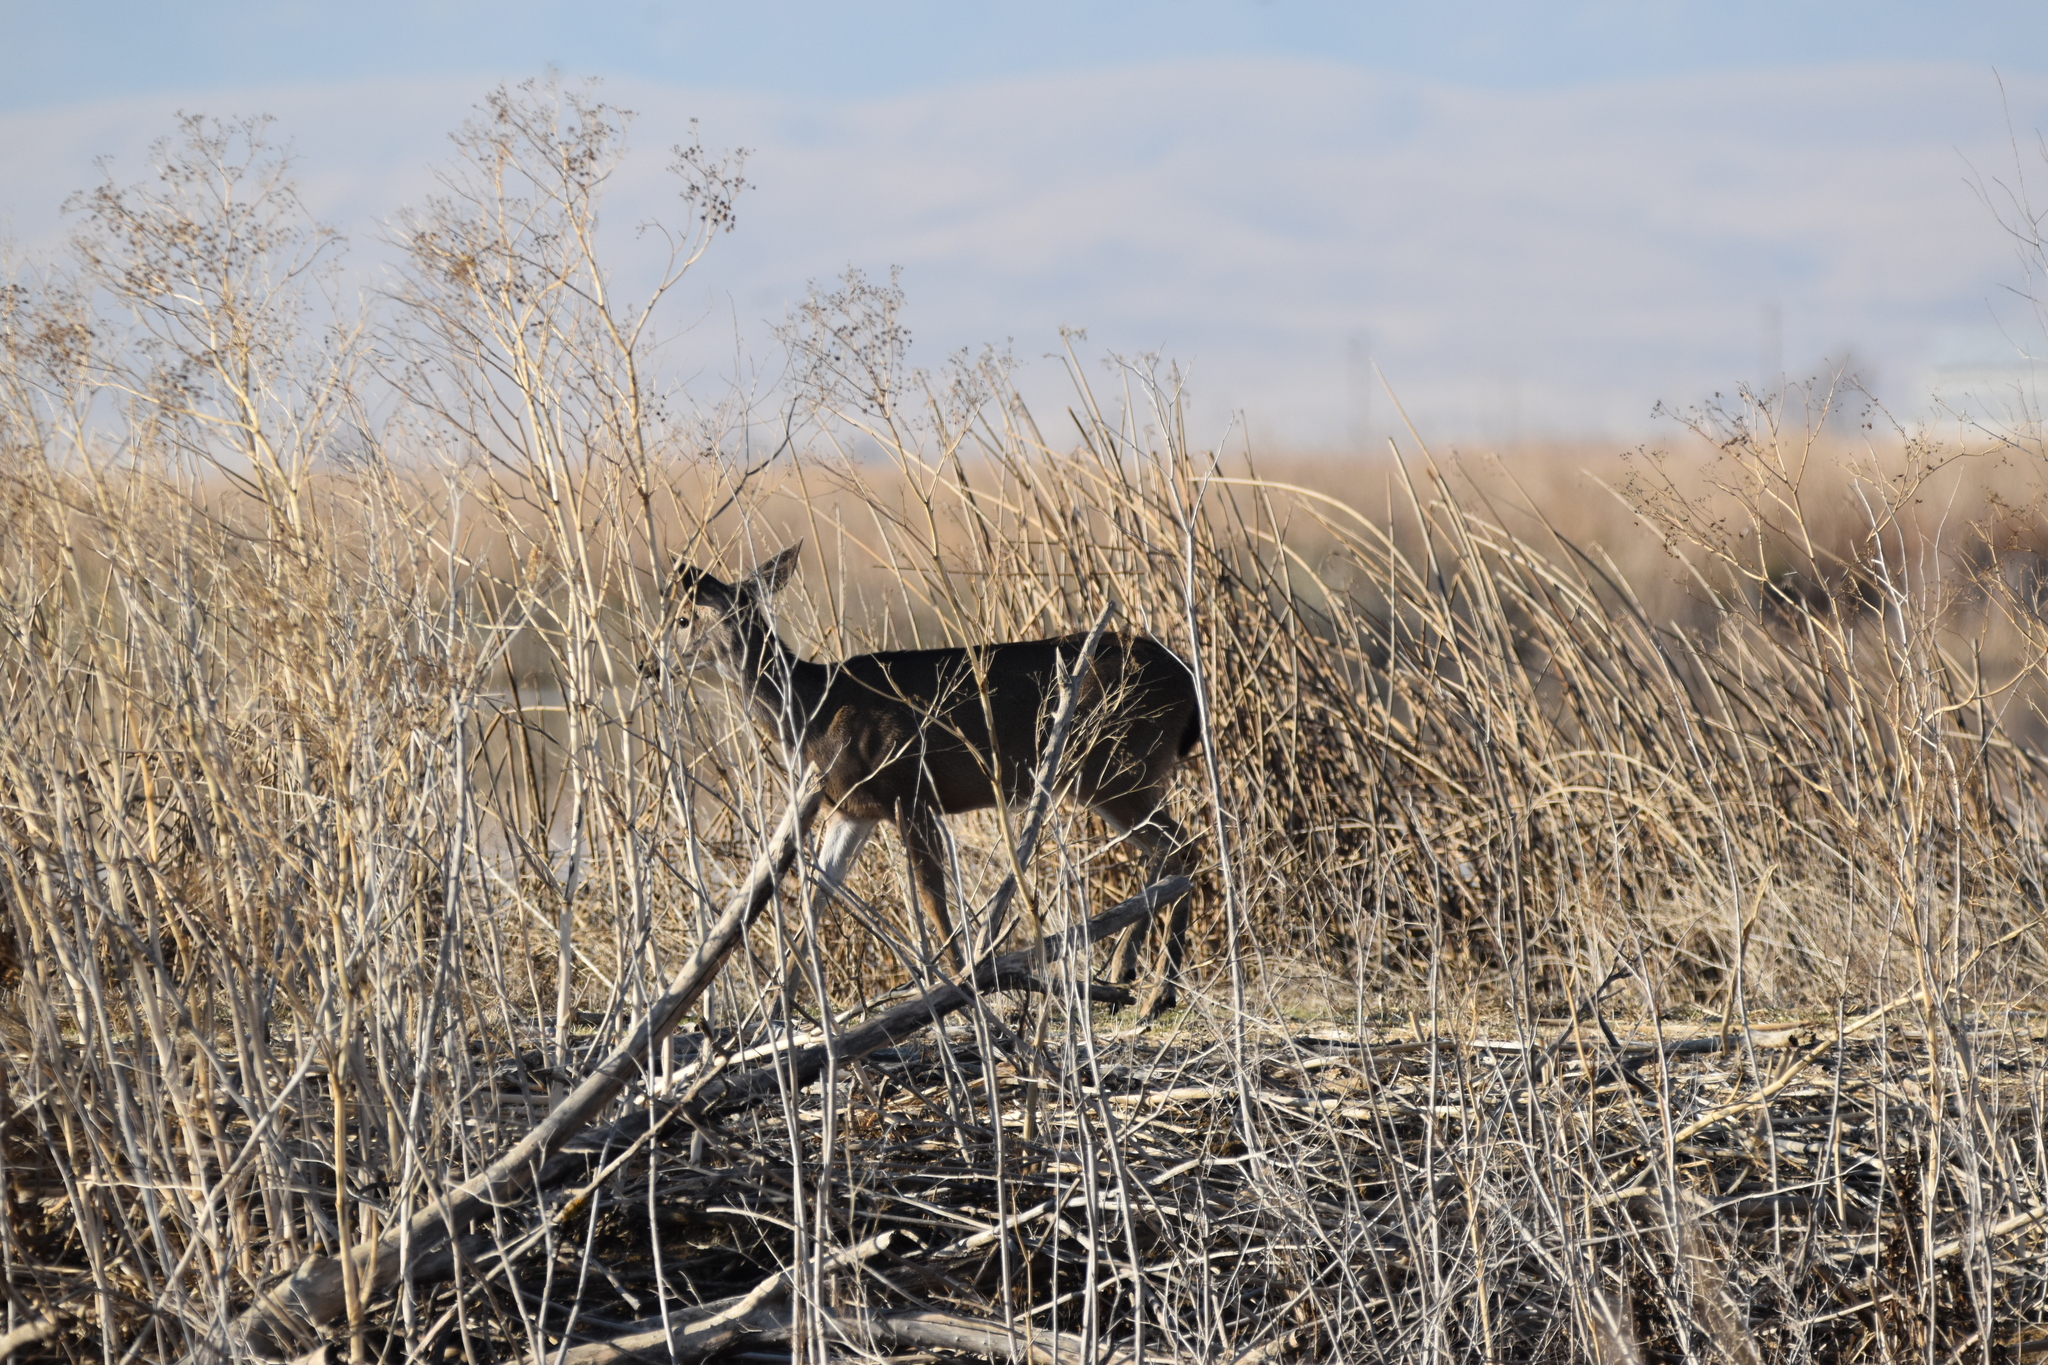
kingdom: Animalia
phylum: Chordata
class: Mammalia
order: Artiodactyla
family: Cervidae
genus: Odocoileus
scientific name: Odocoileus hemionus
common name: Mule deer
